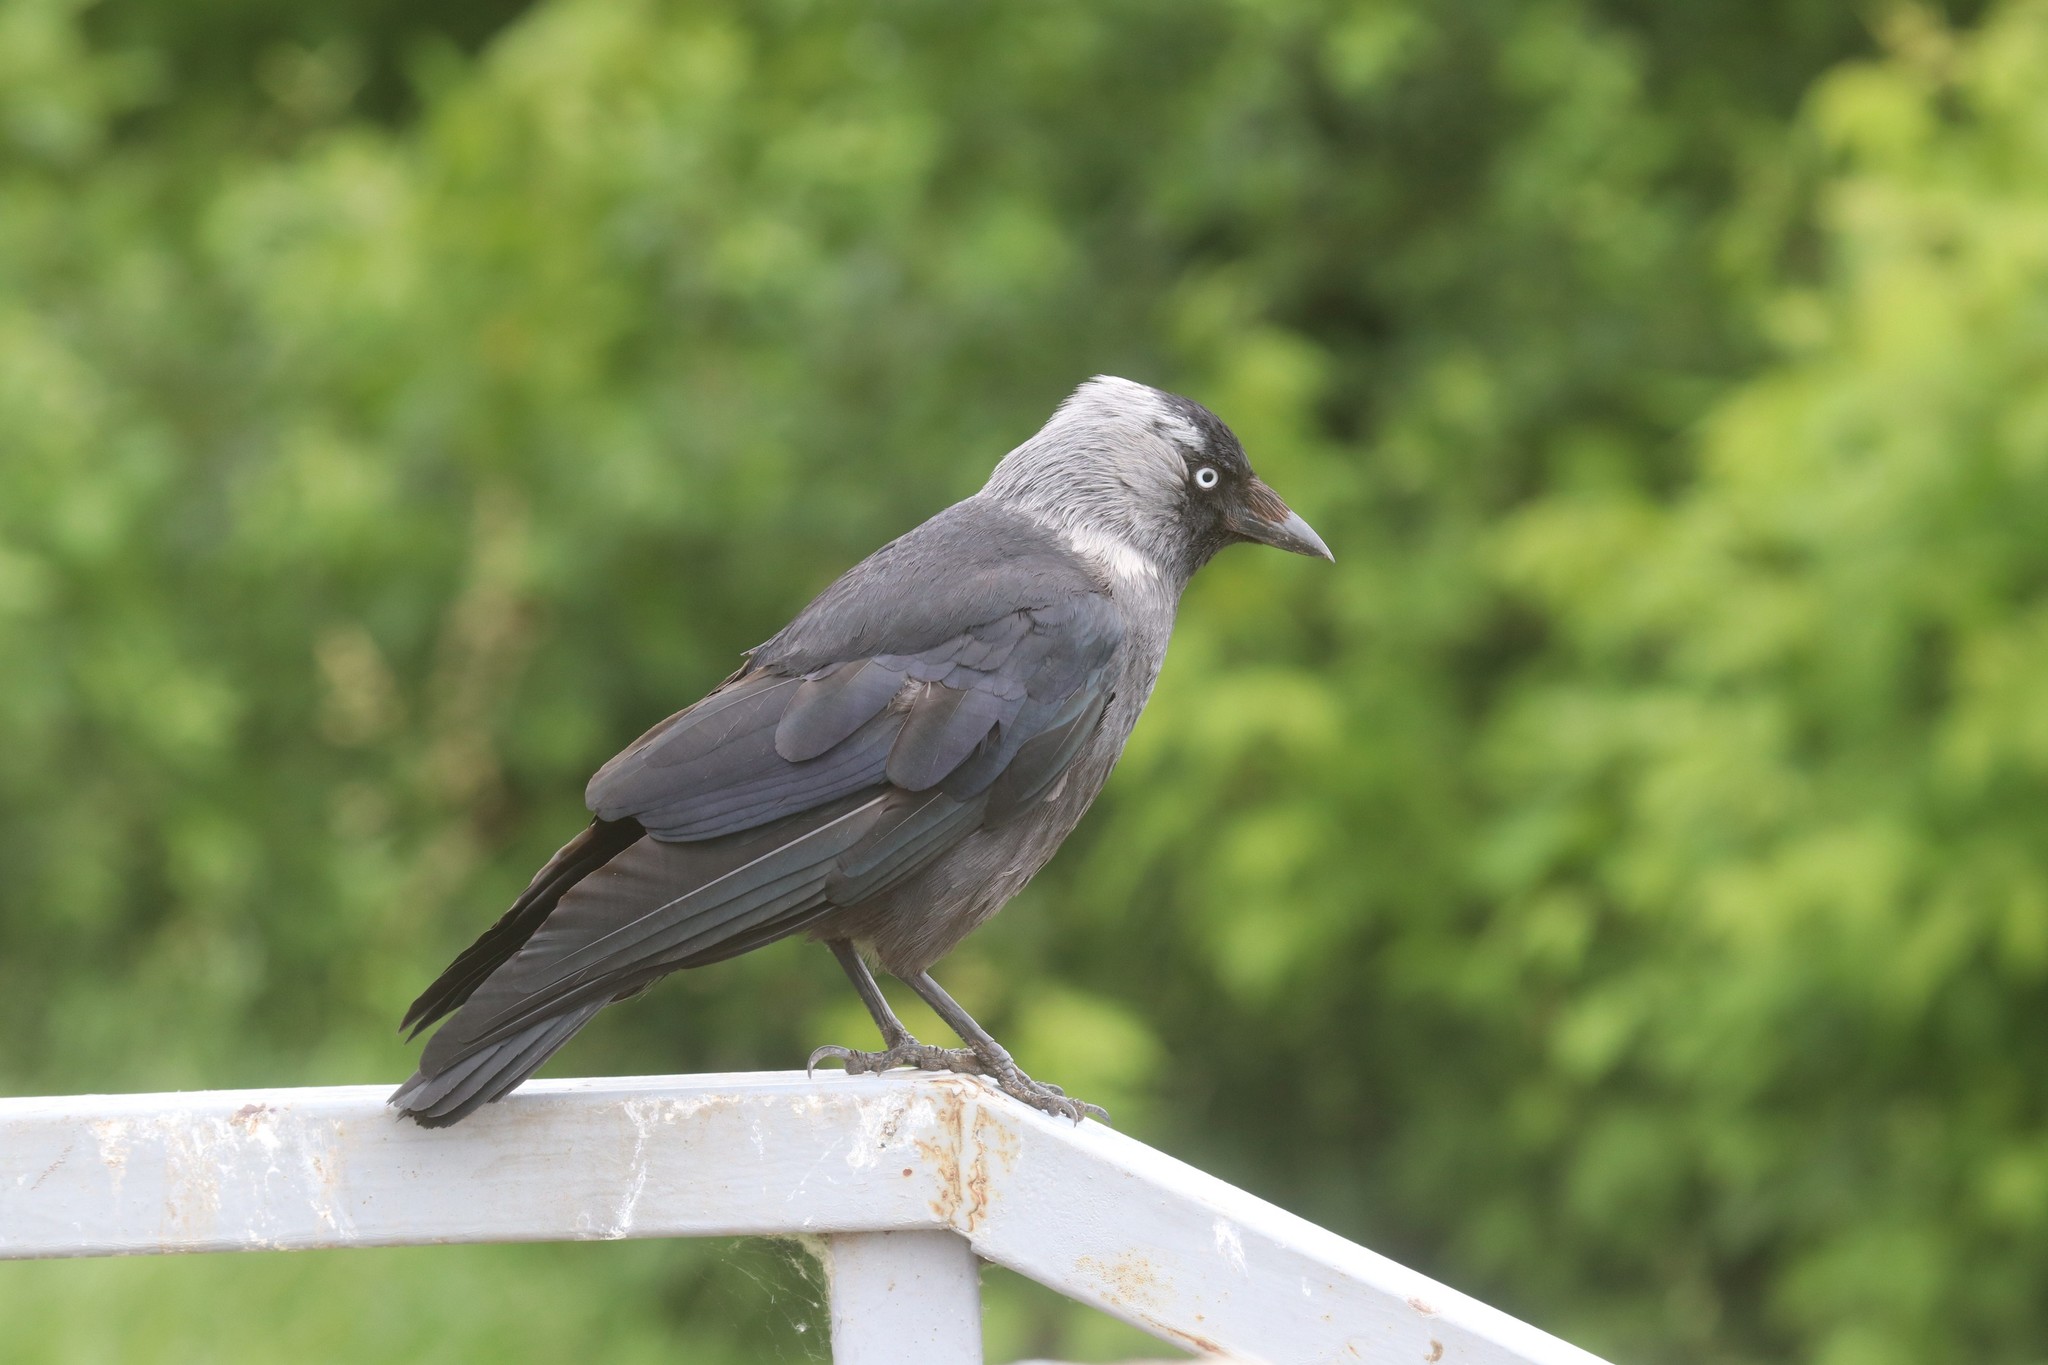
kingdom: Animalia
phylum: Chordata
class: Aves
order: Passeriformes
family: Corvidae
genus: Coloeus
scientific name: Coloeus monedula
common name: Western jackdaw
